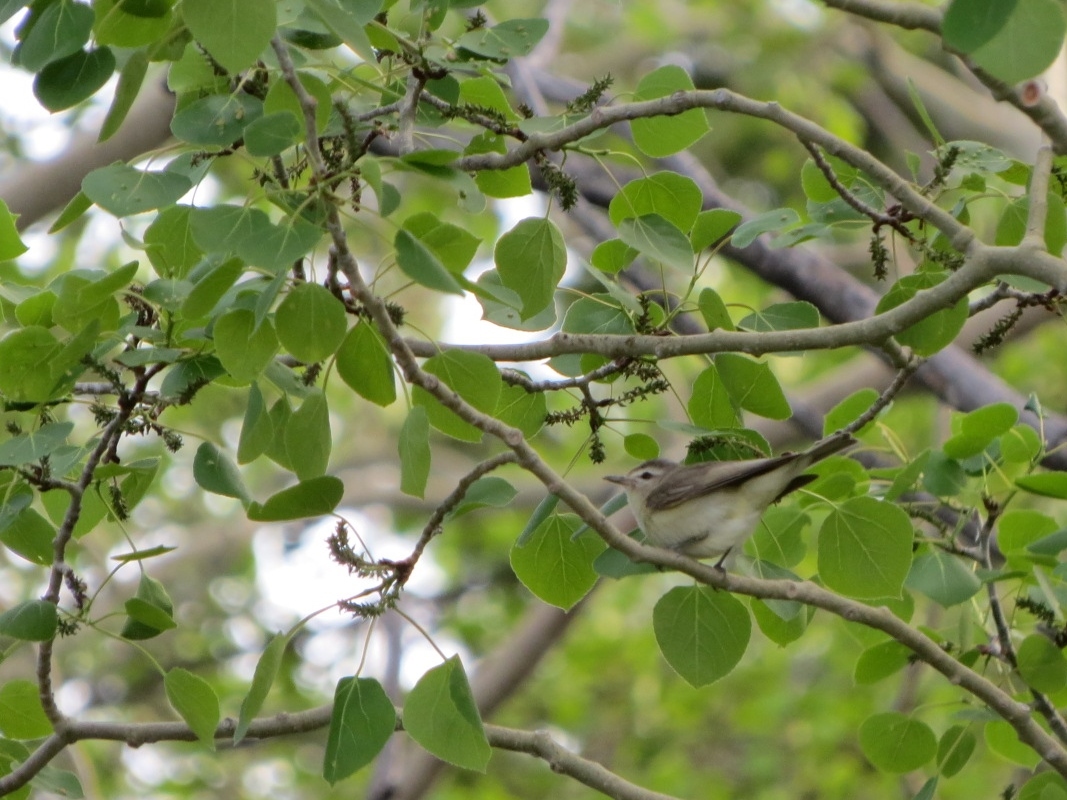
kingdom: Animalia
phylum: Chordata
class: Aves
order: Passeriformes
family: Vireonidae
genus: Vireo
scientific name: Vireo gilvus
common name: Warbling vireo
